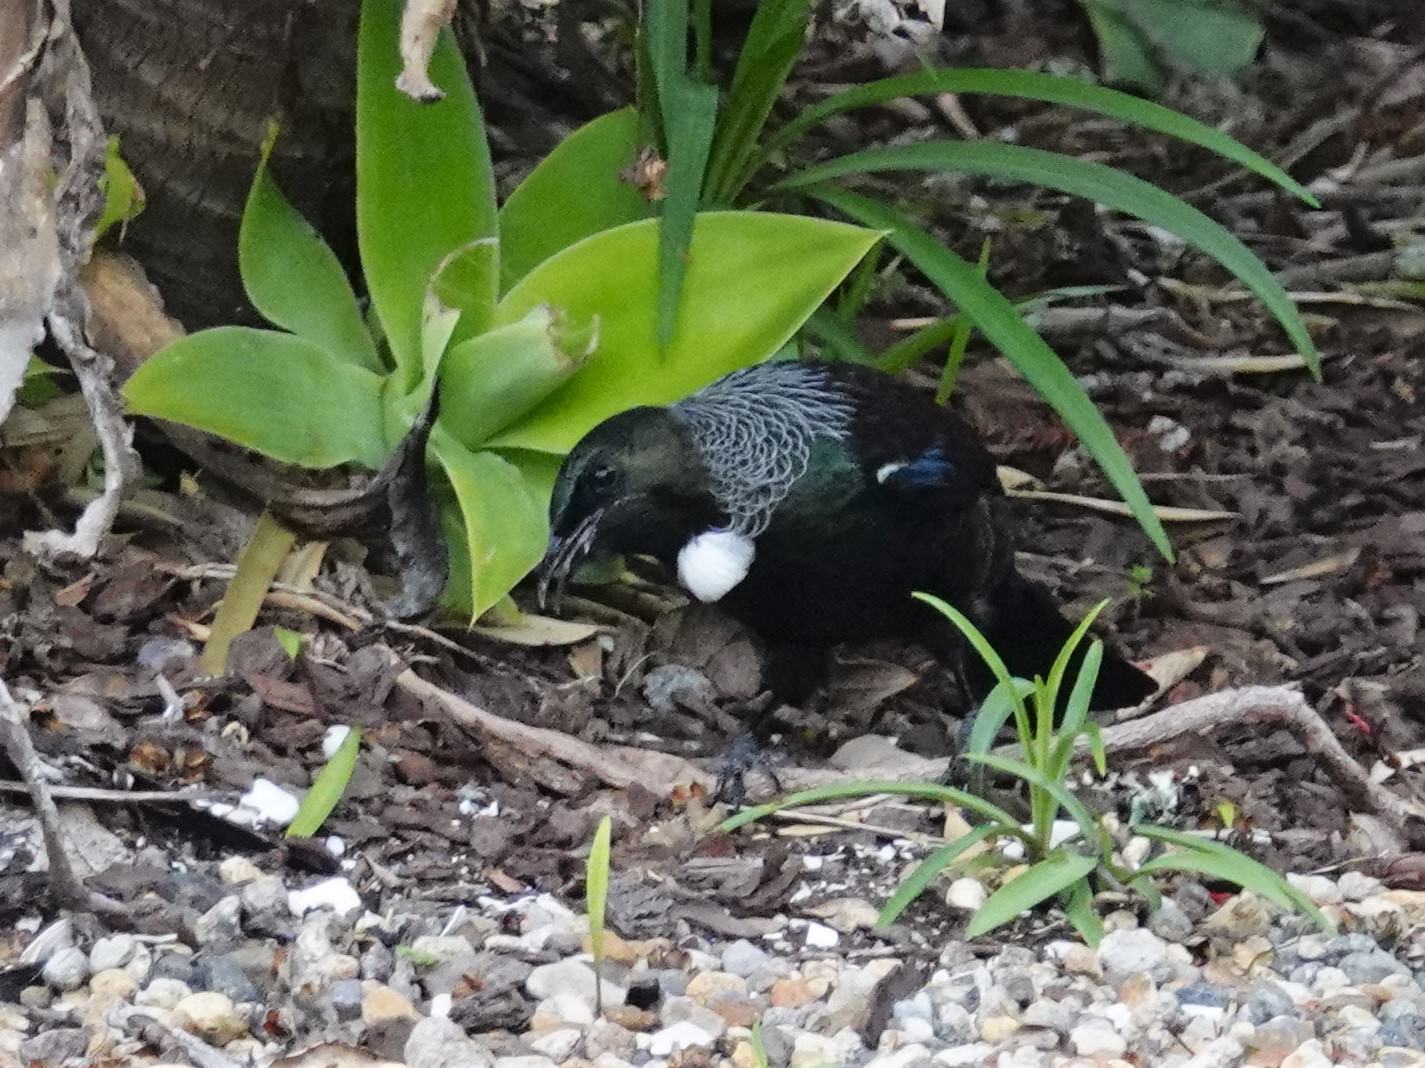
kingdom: Animalia
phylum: Chordata
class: Aves
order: Passeriformes
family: Meliphagidae
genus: Prosthemadera
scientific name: Prosthemadera novaeseelandiae
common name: Tui
